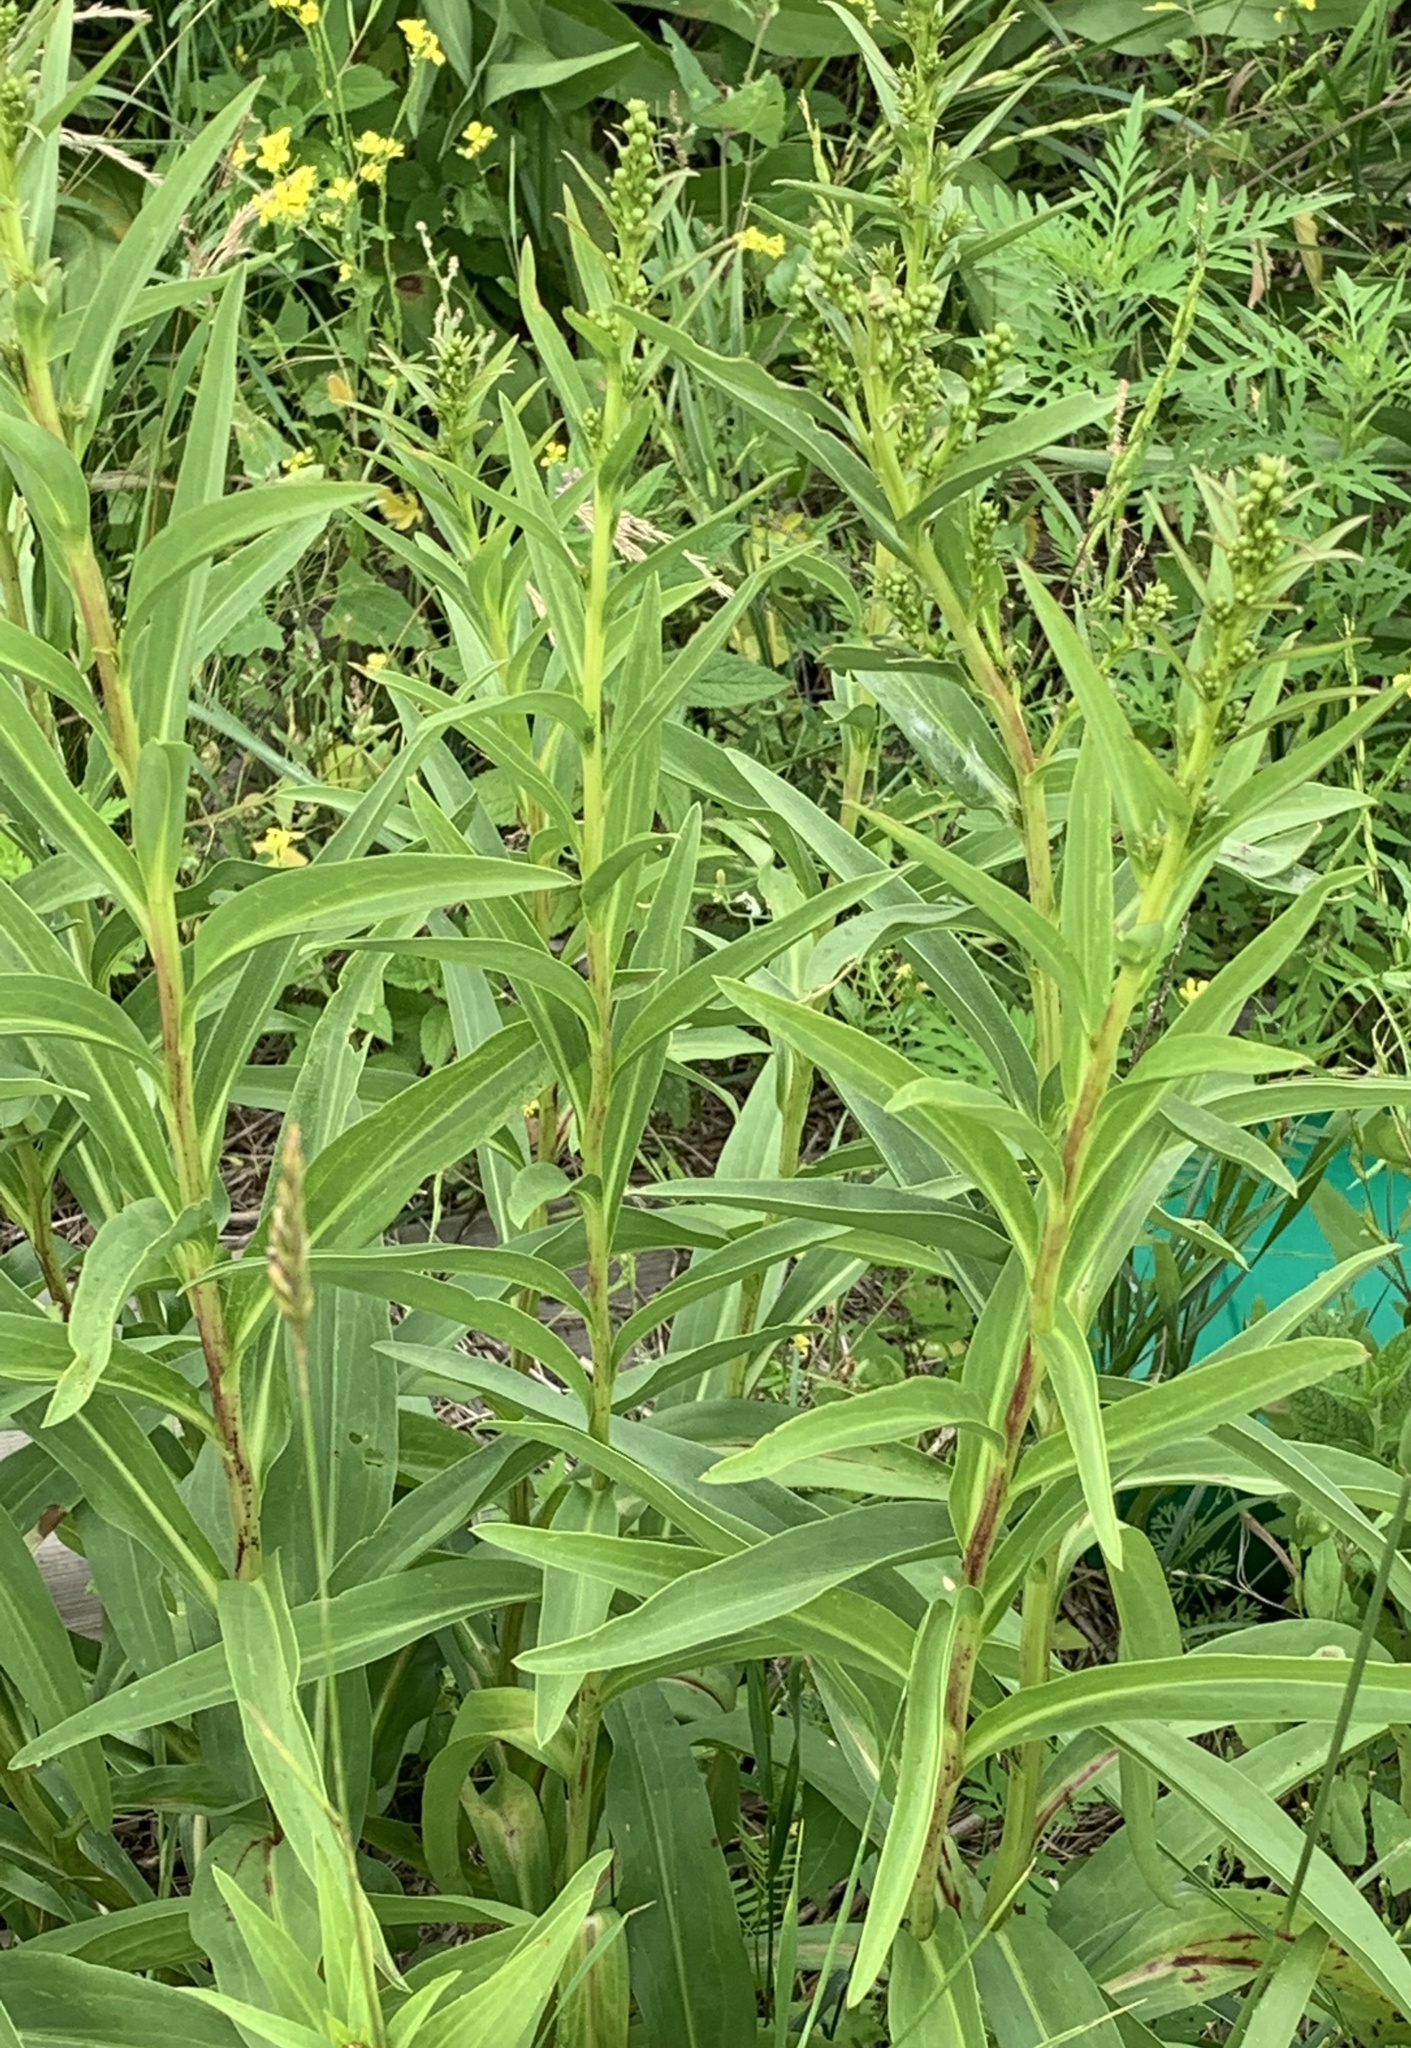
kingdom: Plantae
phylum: Tracheophyta
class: Magnoliopsida
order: Asterales
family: Asteraceae
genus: Solidago
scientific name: Solidago sempervirens
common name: Salt-marsh goldenrod
